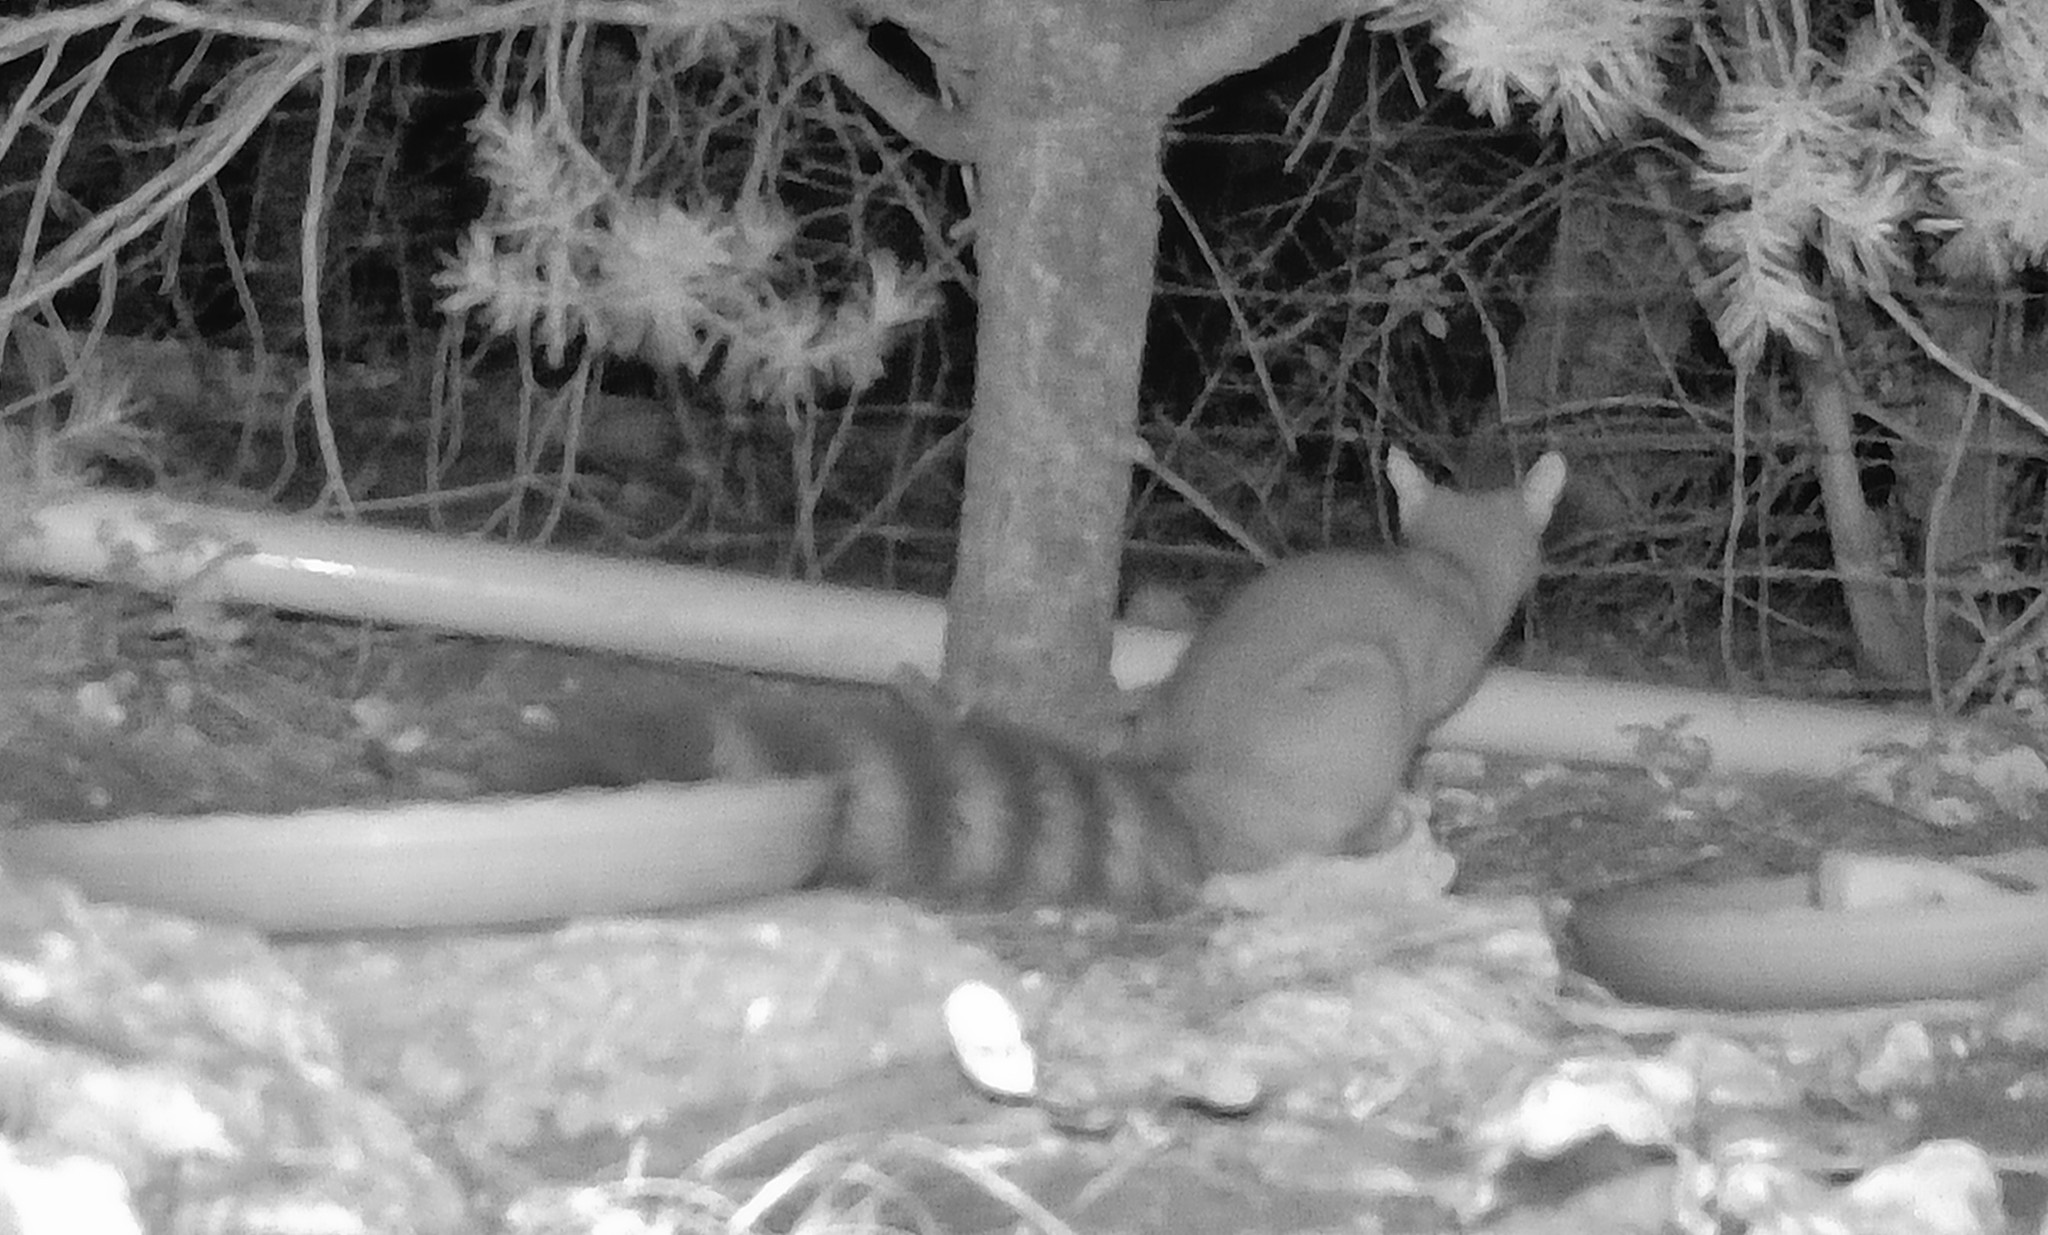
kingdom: Animalia
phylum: Chordata
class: Mammalia
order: Carnivora
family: Procyonidae
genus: Bassariscus
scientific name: Bassariscus astutus
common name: Ringtail
